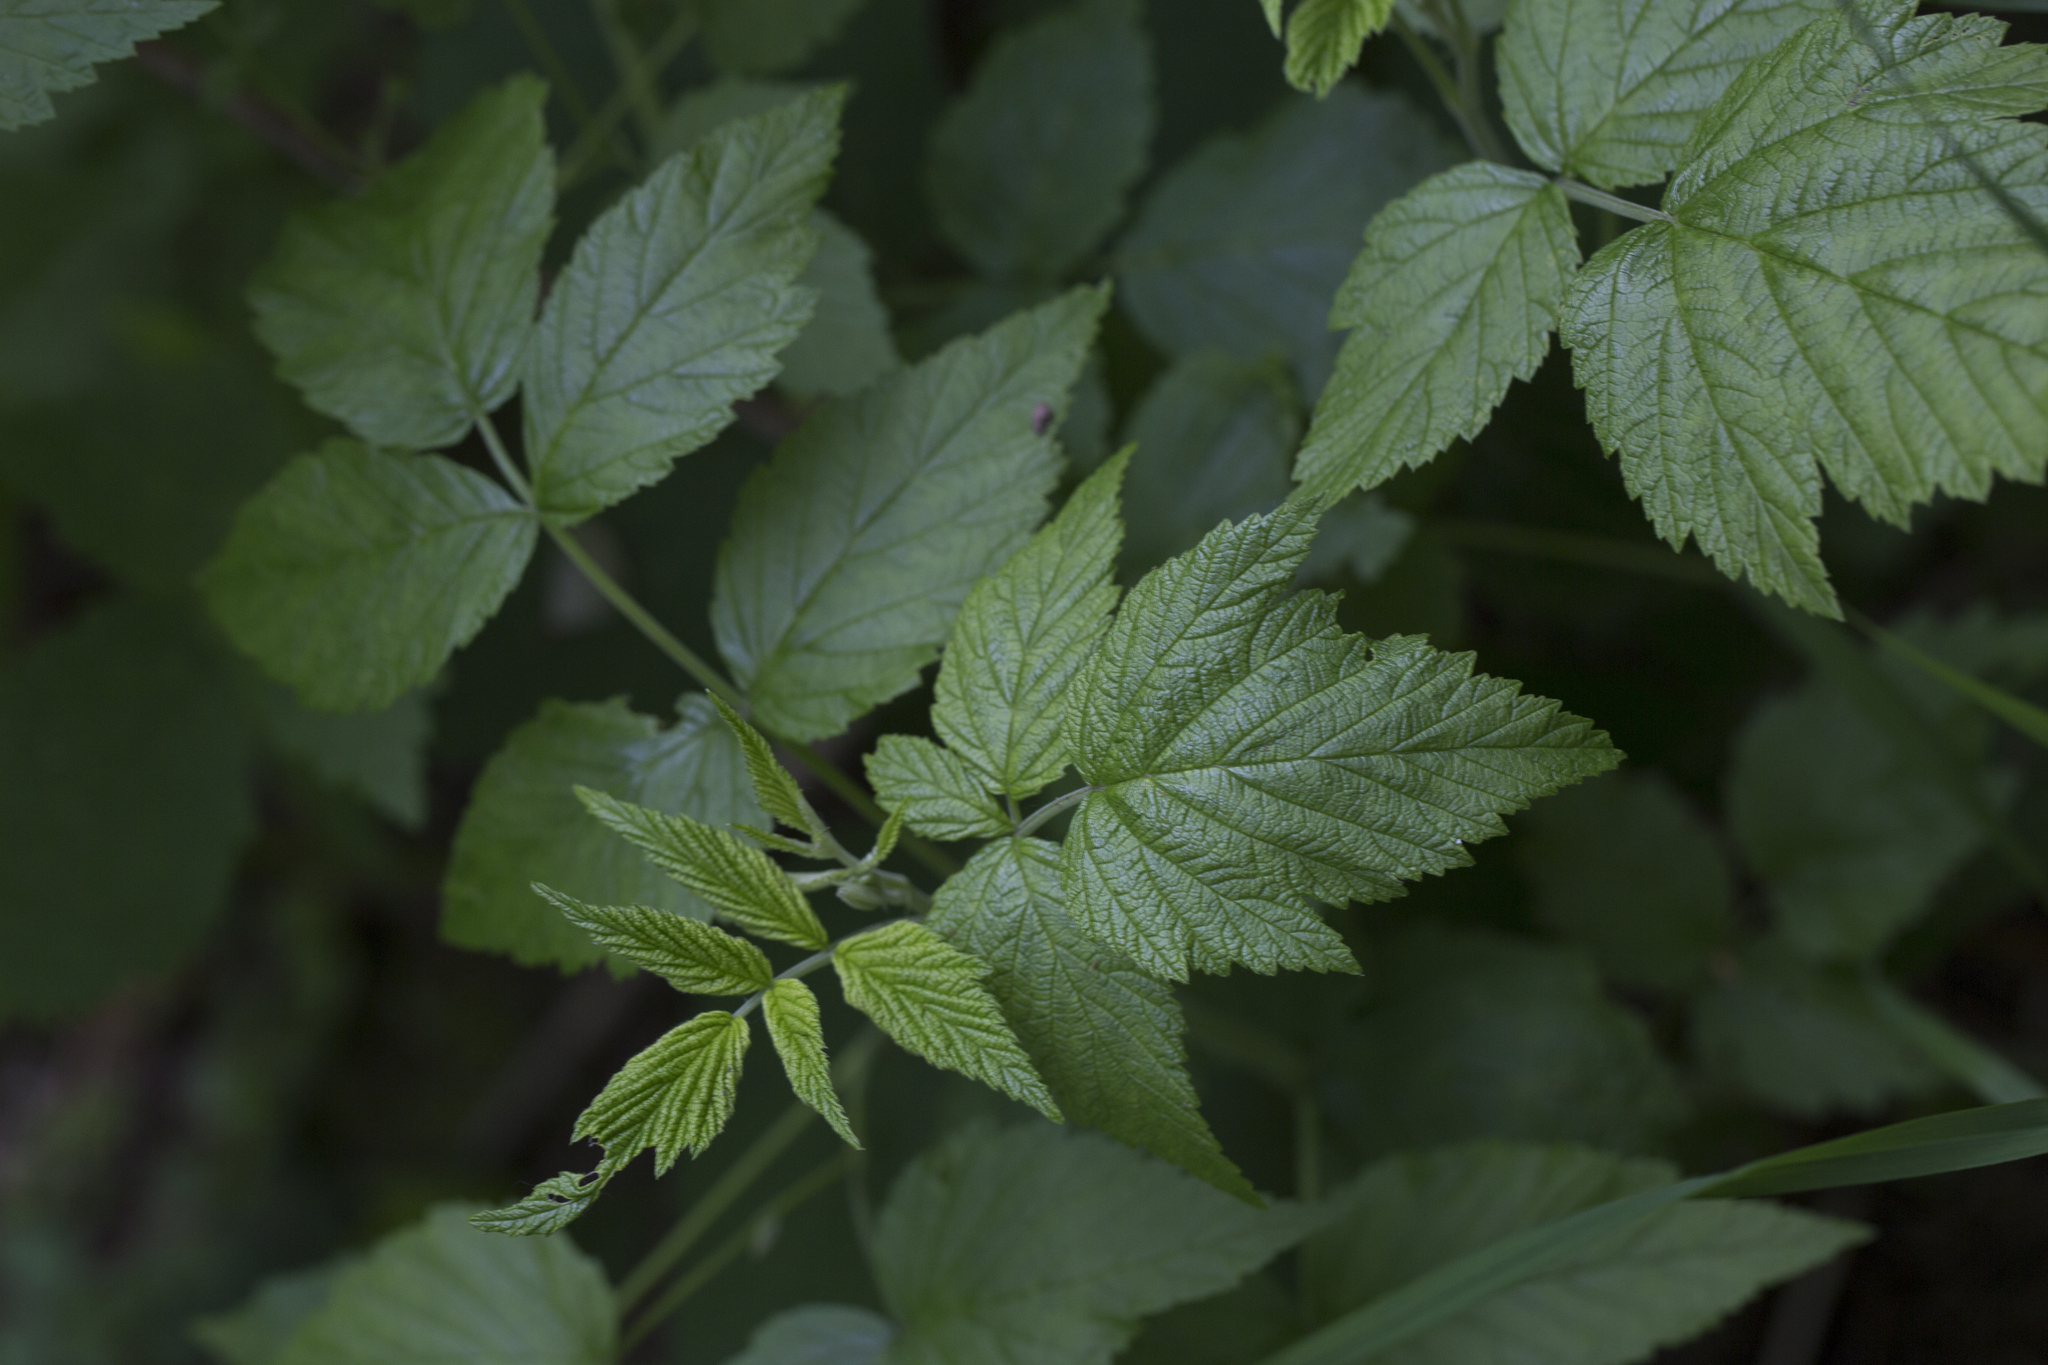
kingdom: Plantae
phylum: Tracheophyta
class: Magnoliopsida
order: Rosales
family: Rosaceae
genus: Rubus
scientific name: Rubus idaeus
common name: Raspberry
